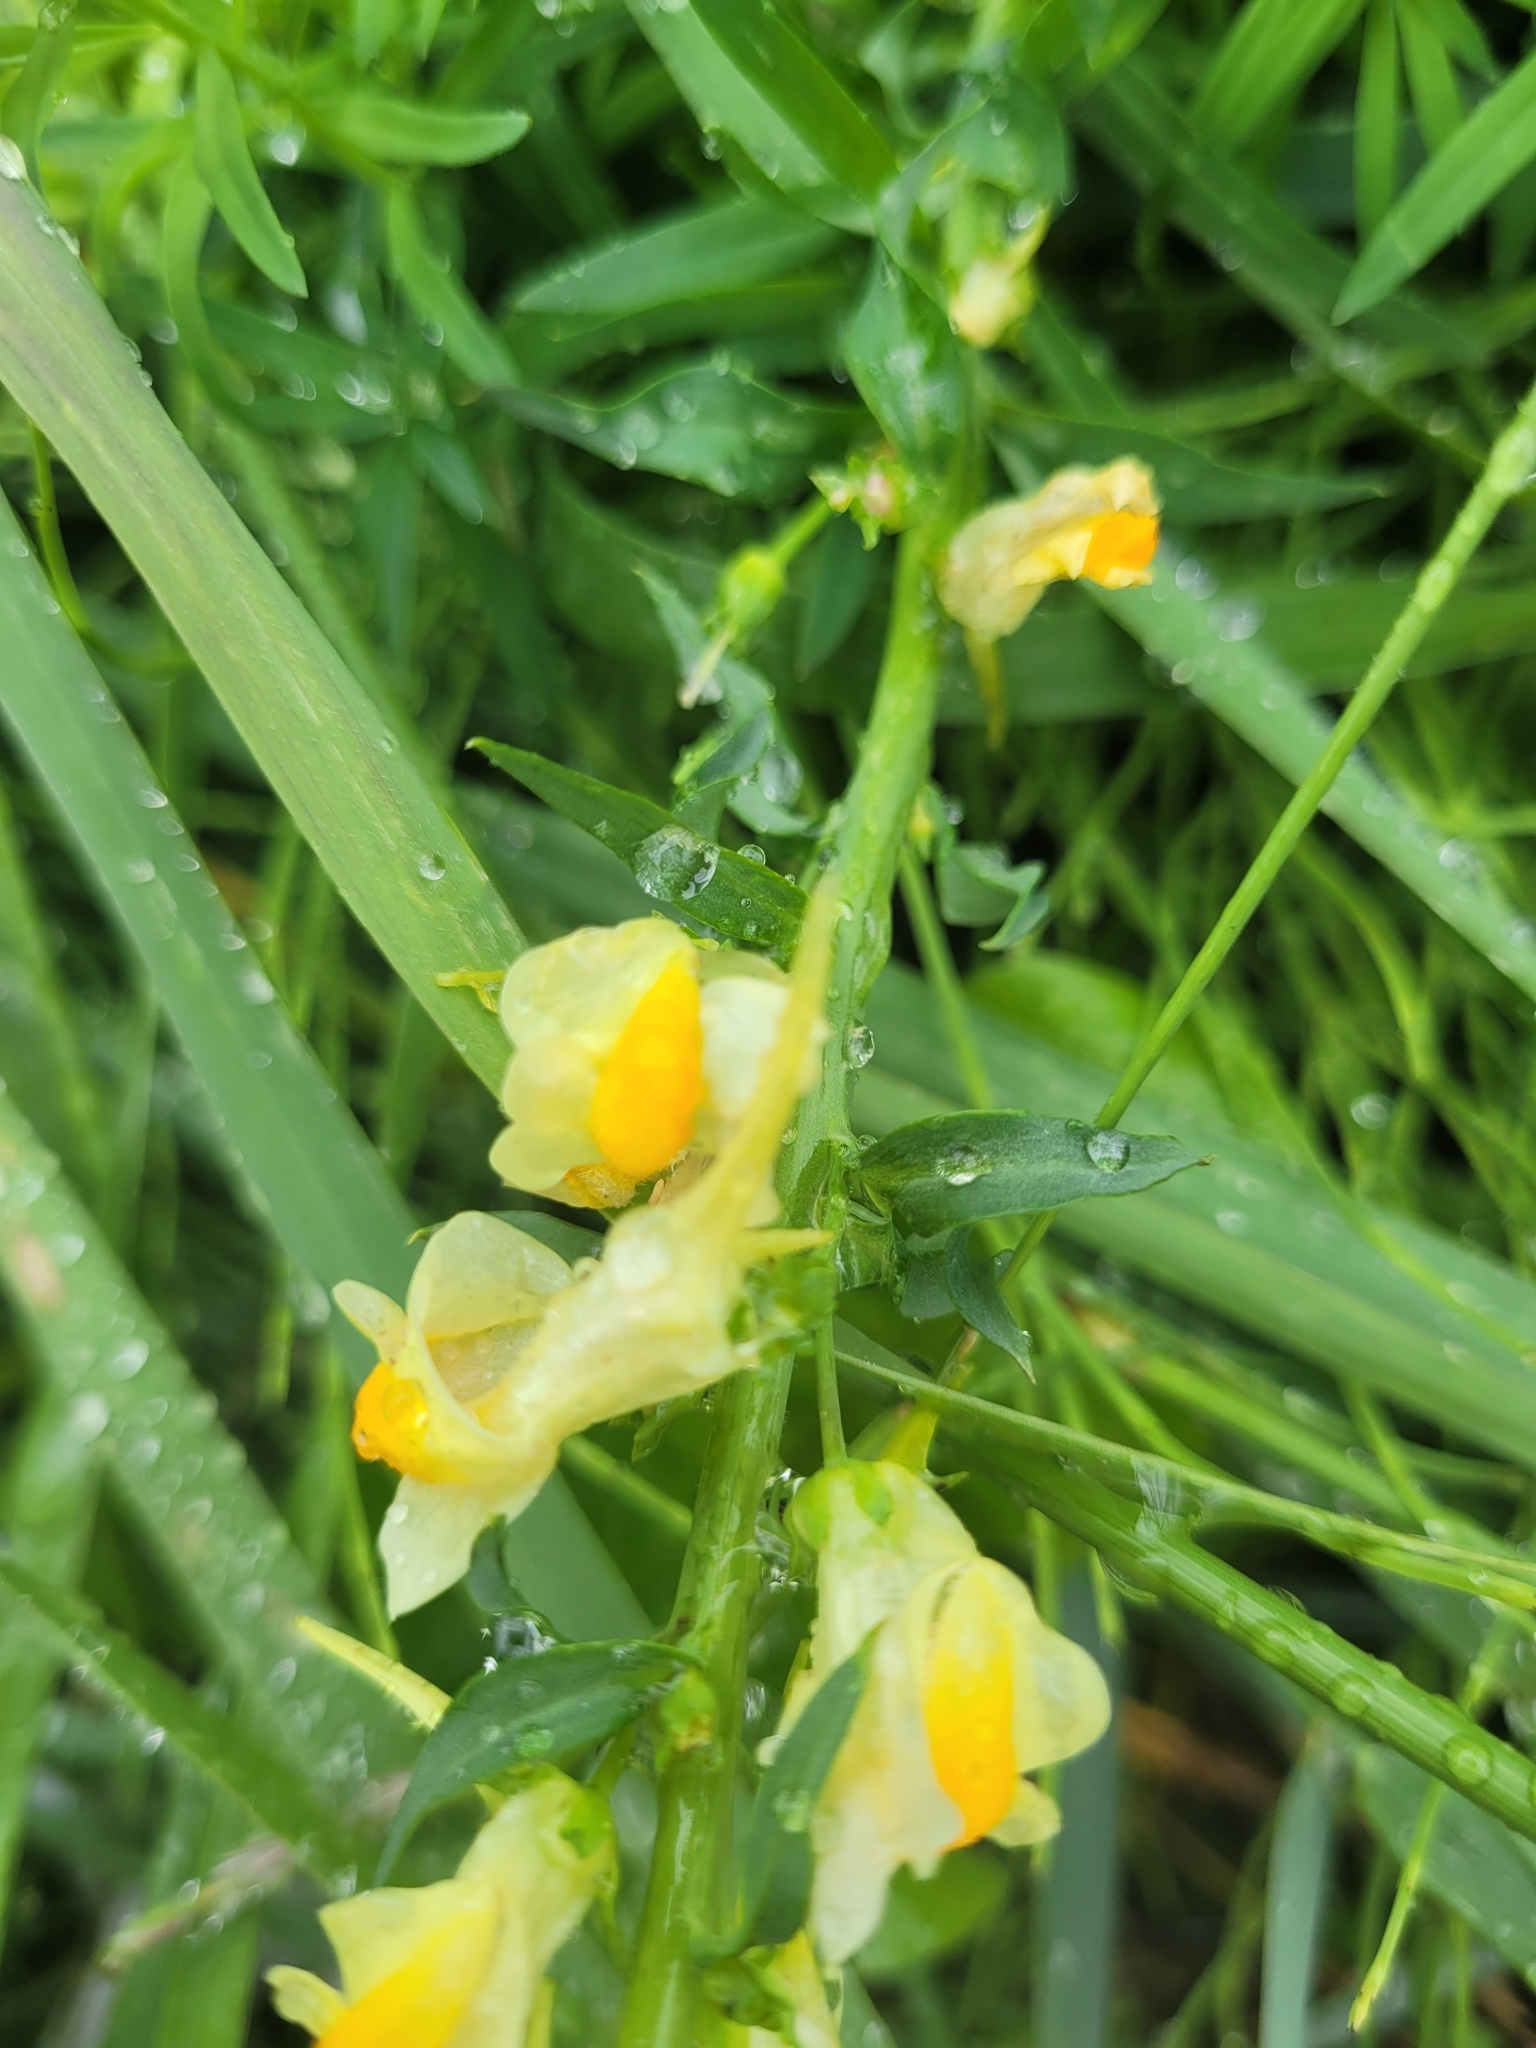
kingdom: Plantae
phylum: Tracheophyta
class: Magnoliopsida
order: Lamiales
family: Plantaginaceae
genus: Linaria
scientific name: Linaria vulgaris
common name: Butter and eggs
